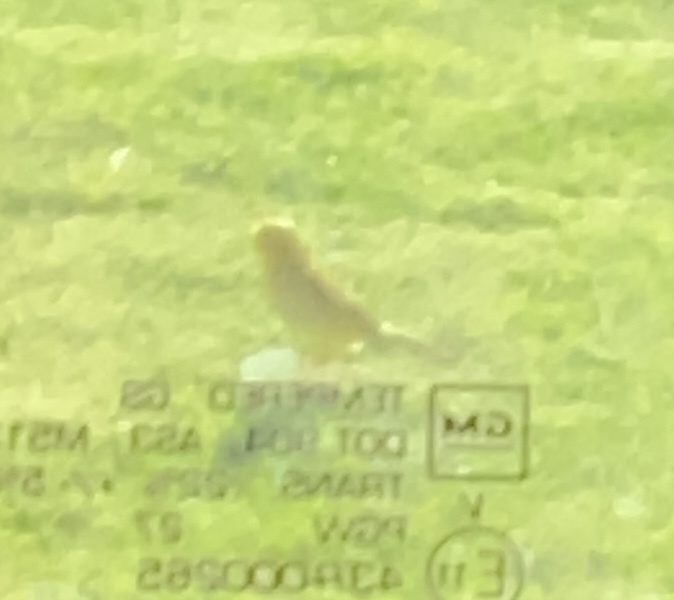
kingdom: Animalia
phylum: Chordata
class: Aves
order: Passeriformes
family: Thraupidae
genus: Sicalis
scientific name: Sicalis flaveola
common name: Saffron finch
